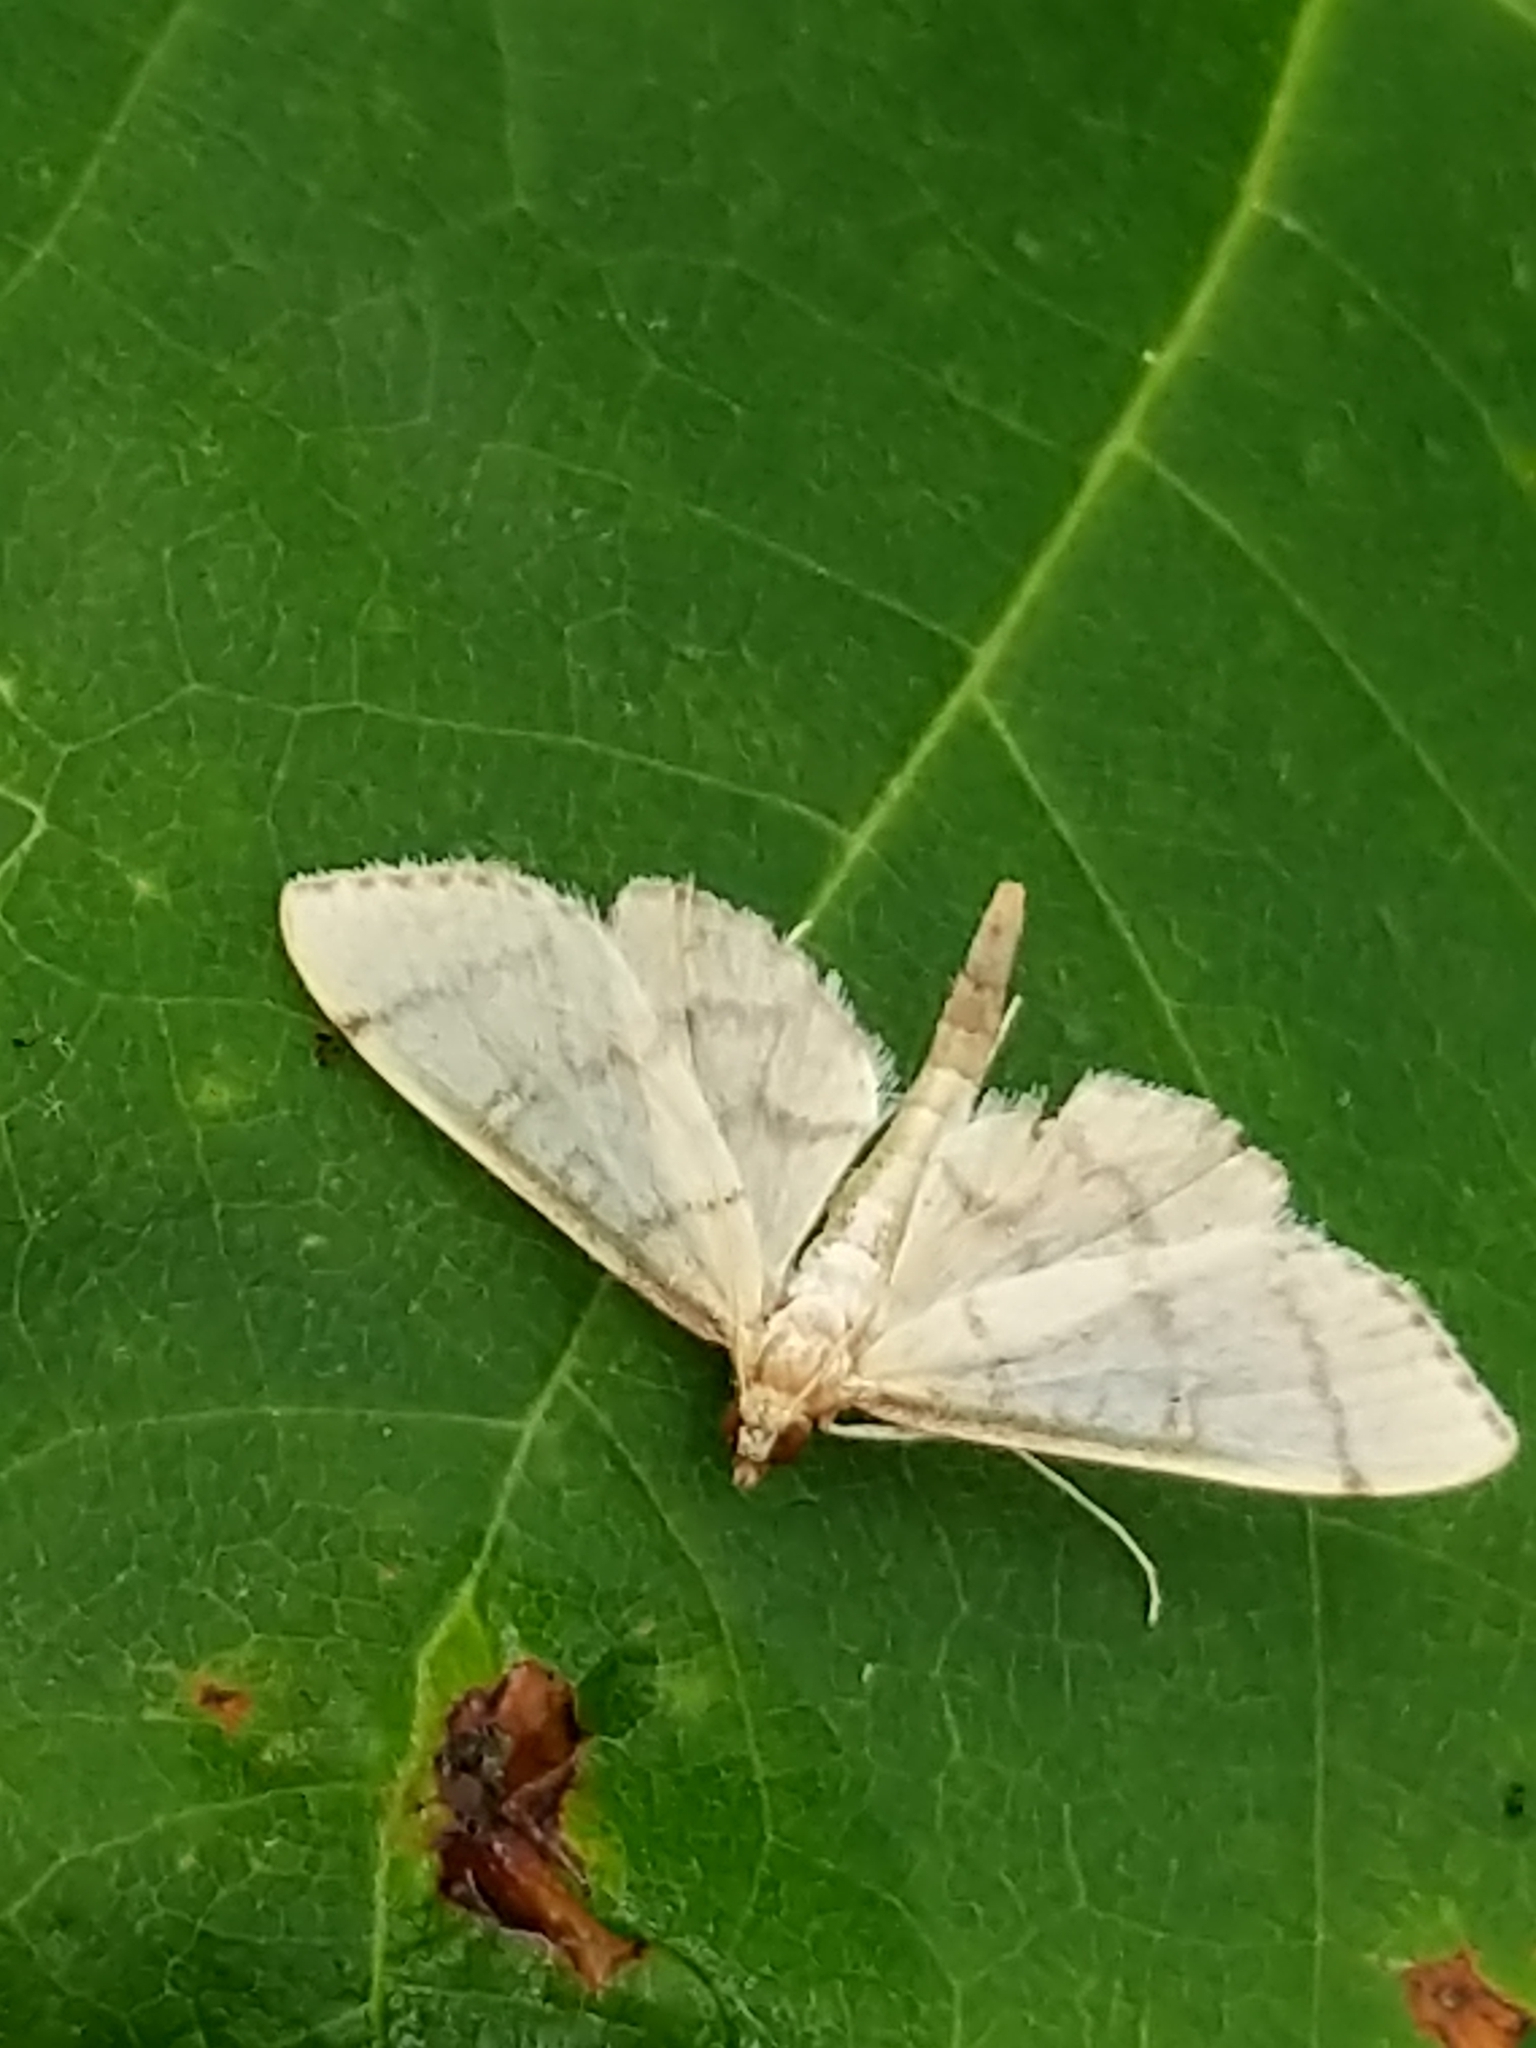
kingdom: Animalia
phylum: Arthropoda
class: Insecta
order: Lepidoptera
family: Crambidae
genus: Lamprosema
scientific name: Lamprosema Blepharomastix ranalis
